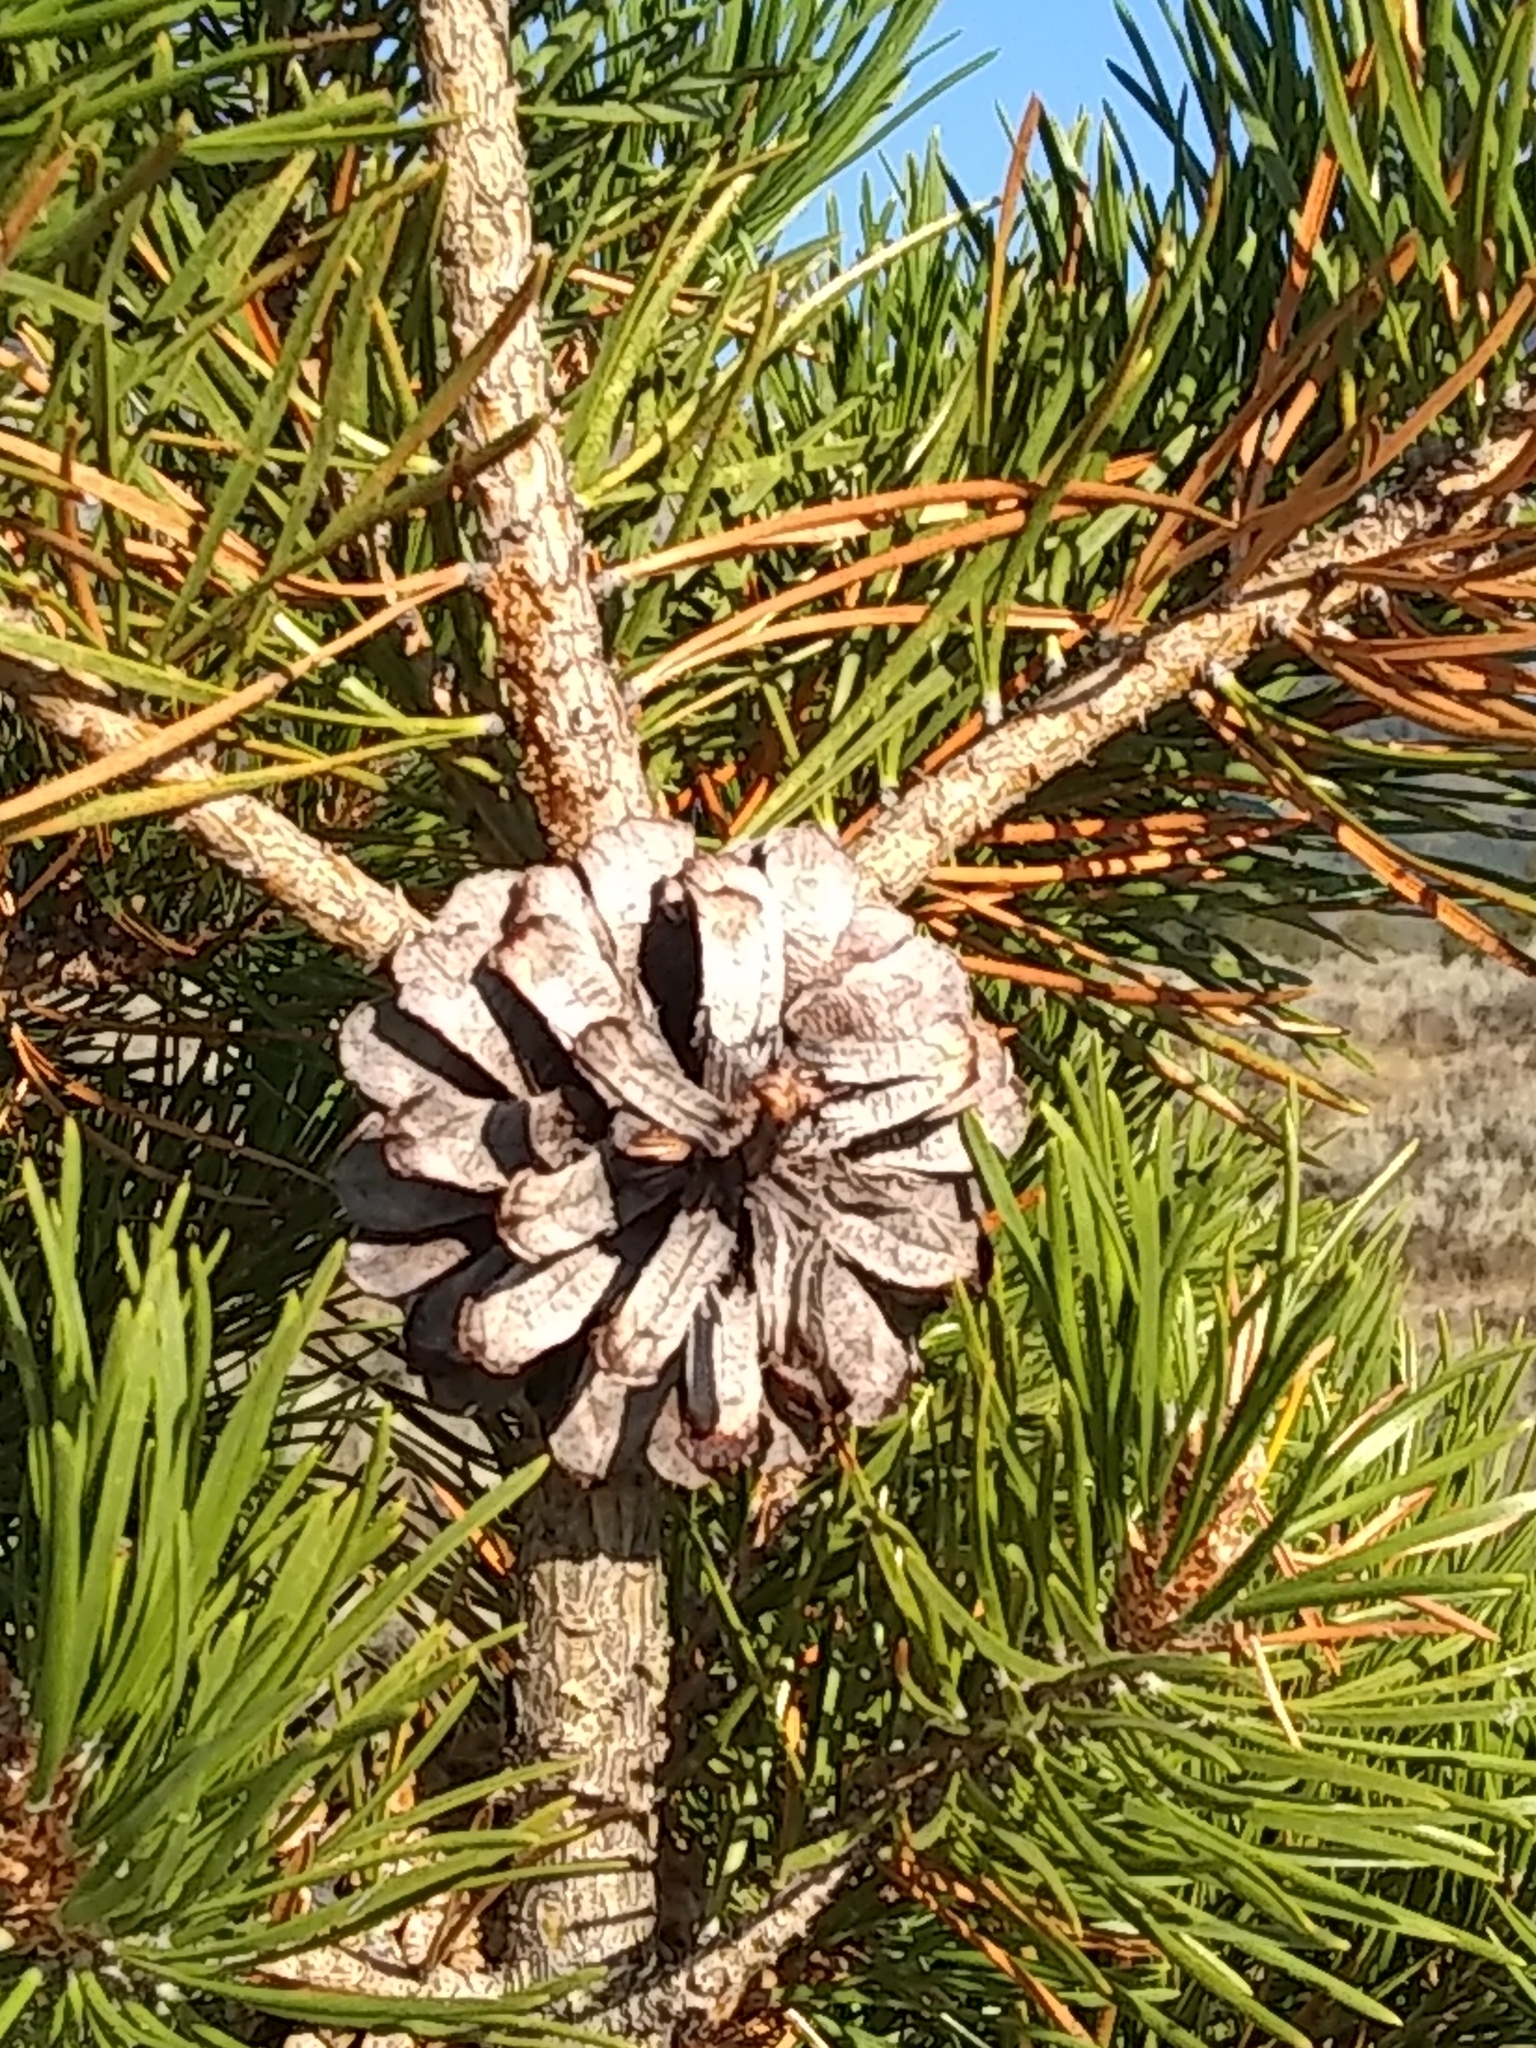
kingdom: Plantae
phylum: Tracheophyta
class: Pinopsida
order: Pinales
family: Pinaceae
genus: Pinus
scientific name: Pinus contorta
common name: Lodgepole pine
